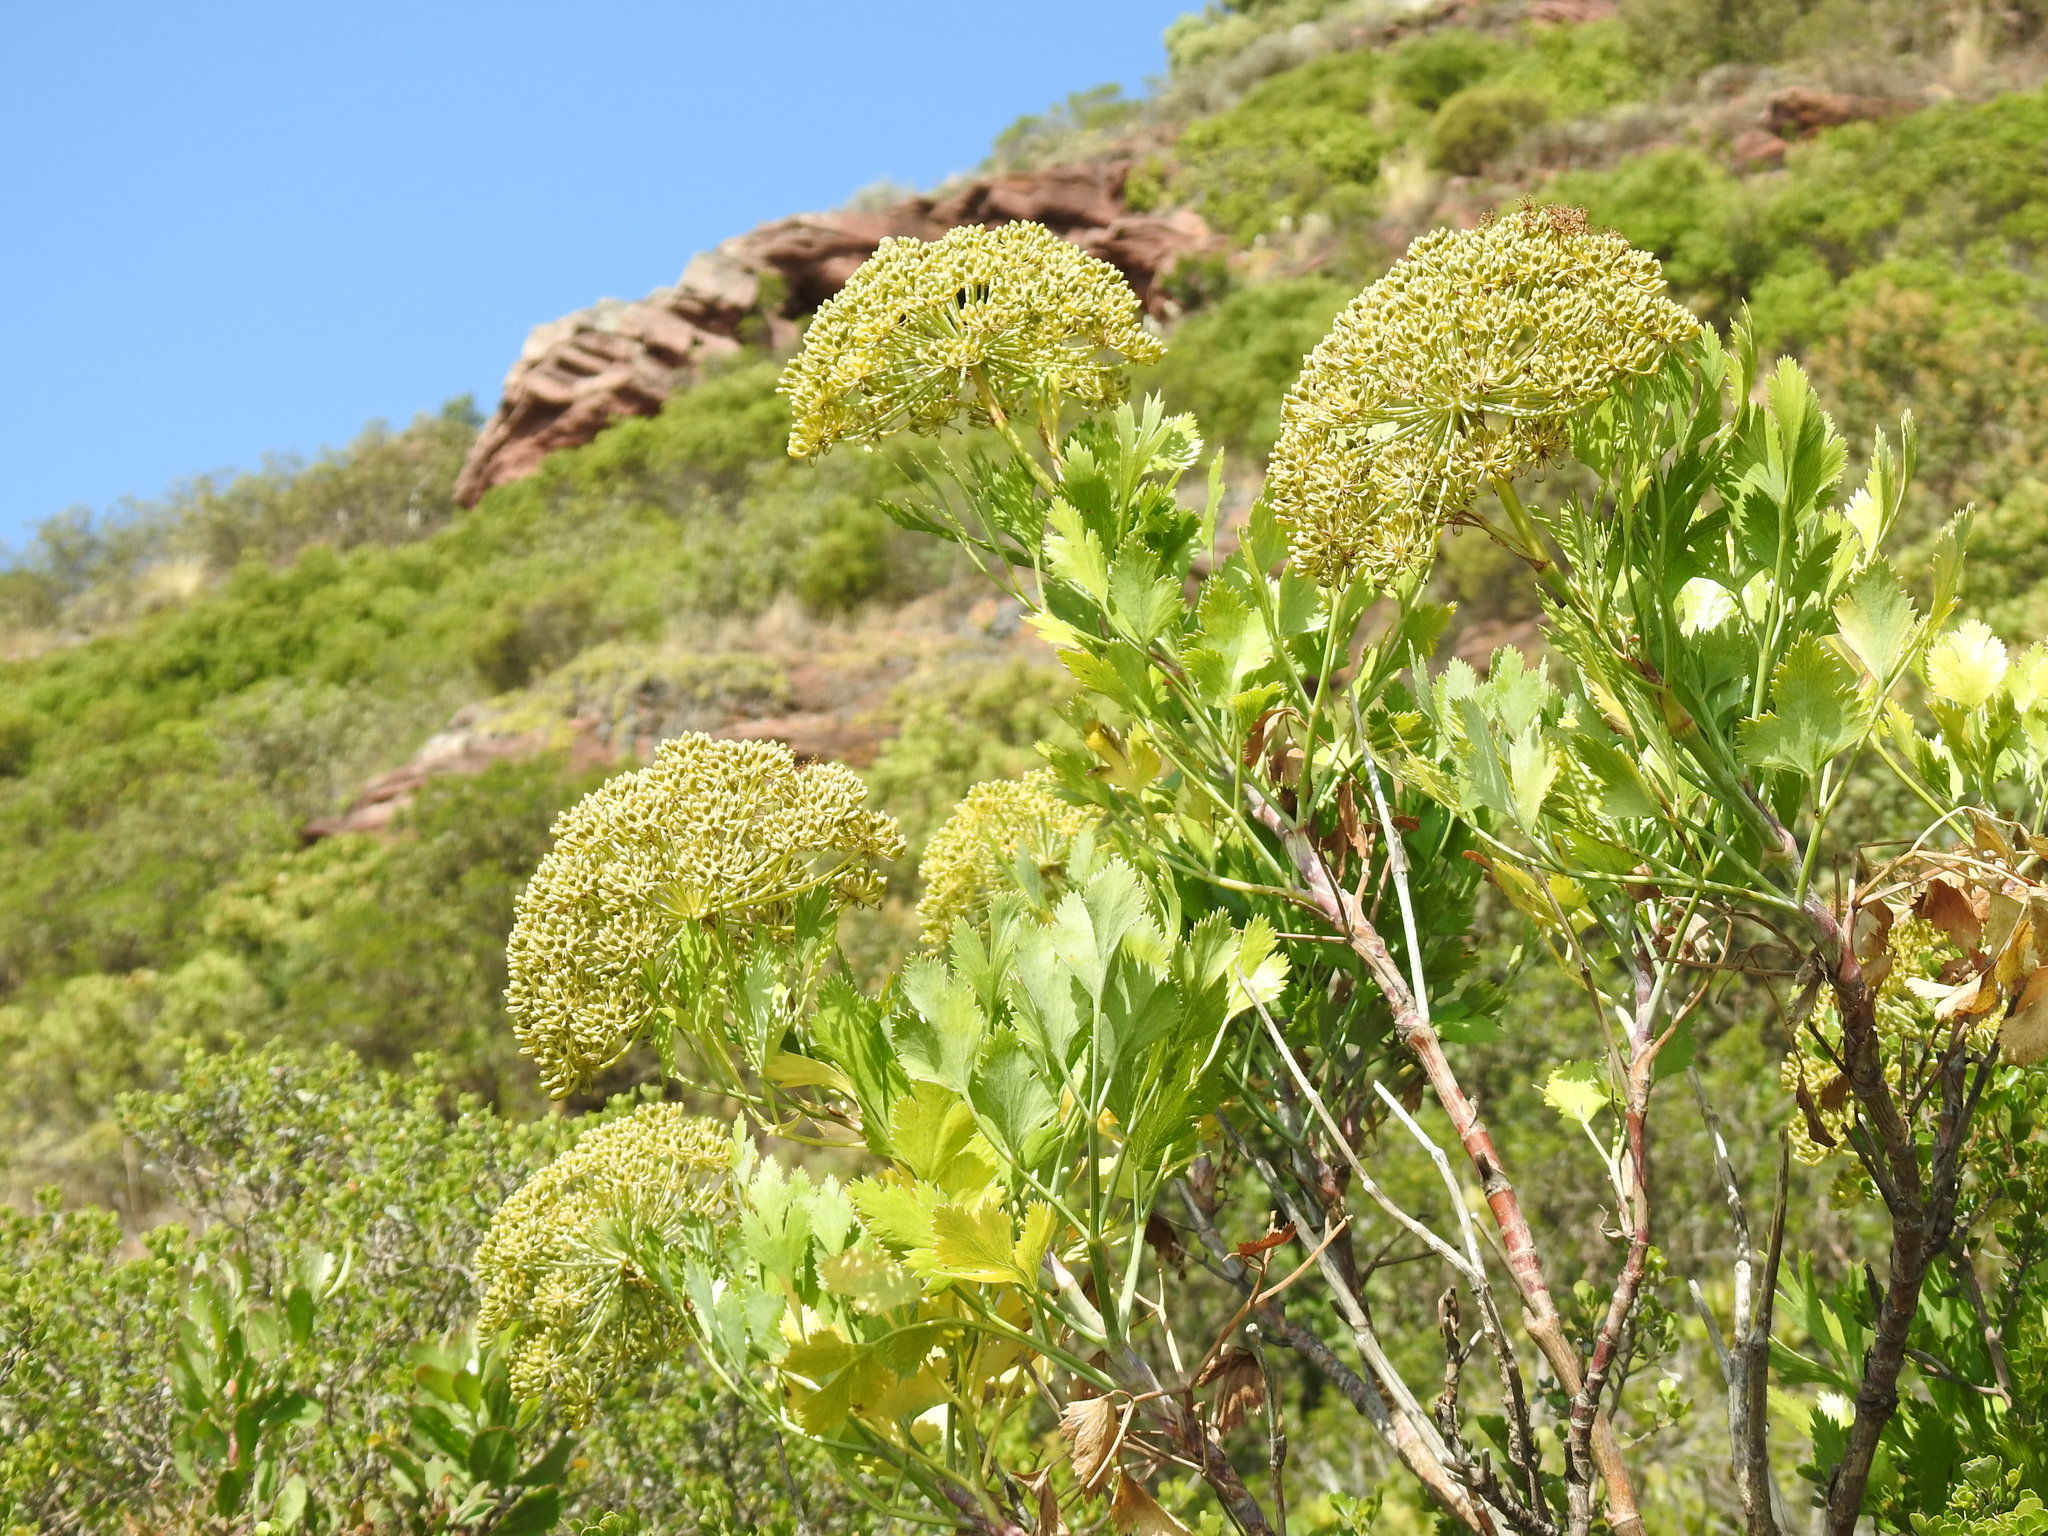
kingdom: Plantae
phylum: Tracheophyta
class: Magnoliopsida
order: Apiales
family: Apiaceae
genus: Notobubon
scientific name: Notobubon galbanum
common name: Blisterbush
